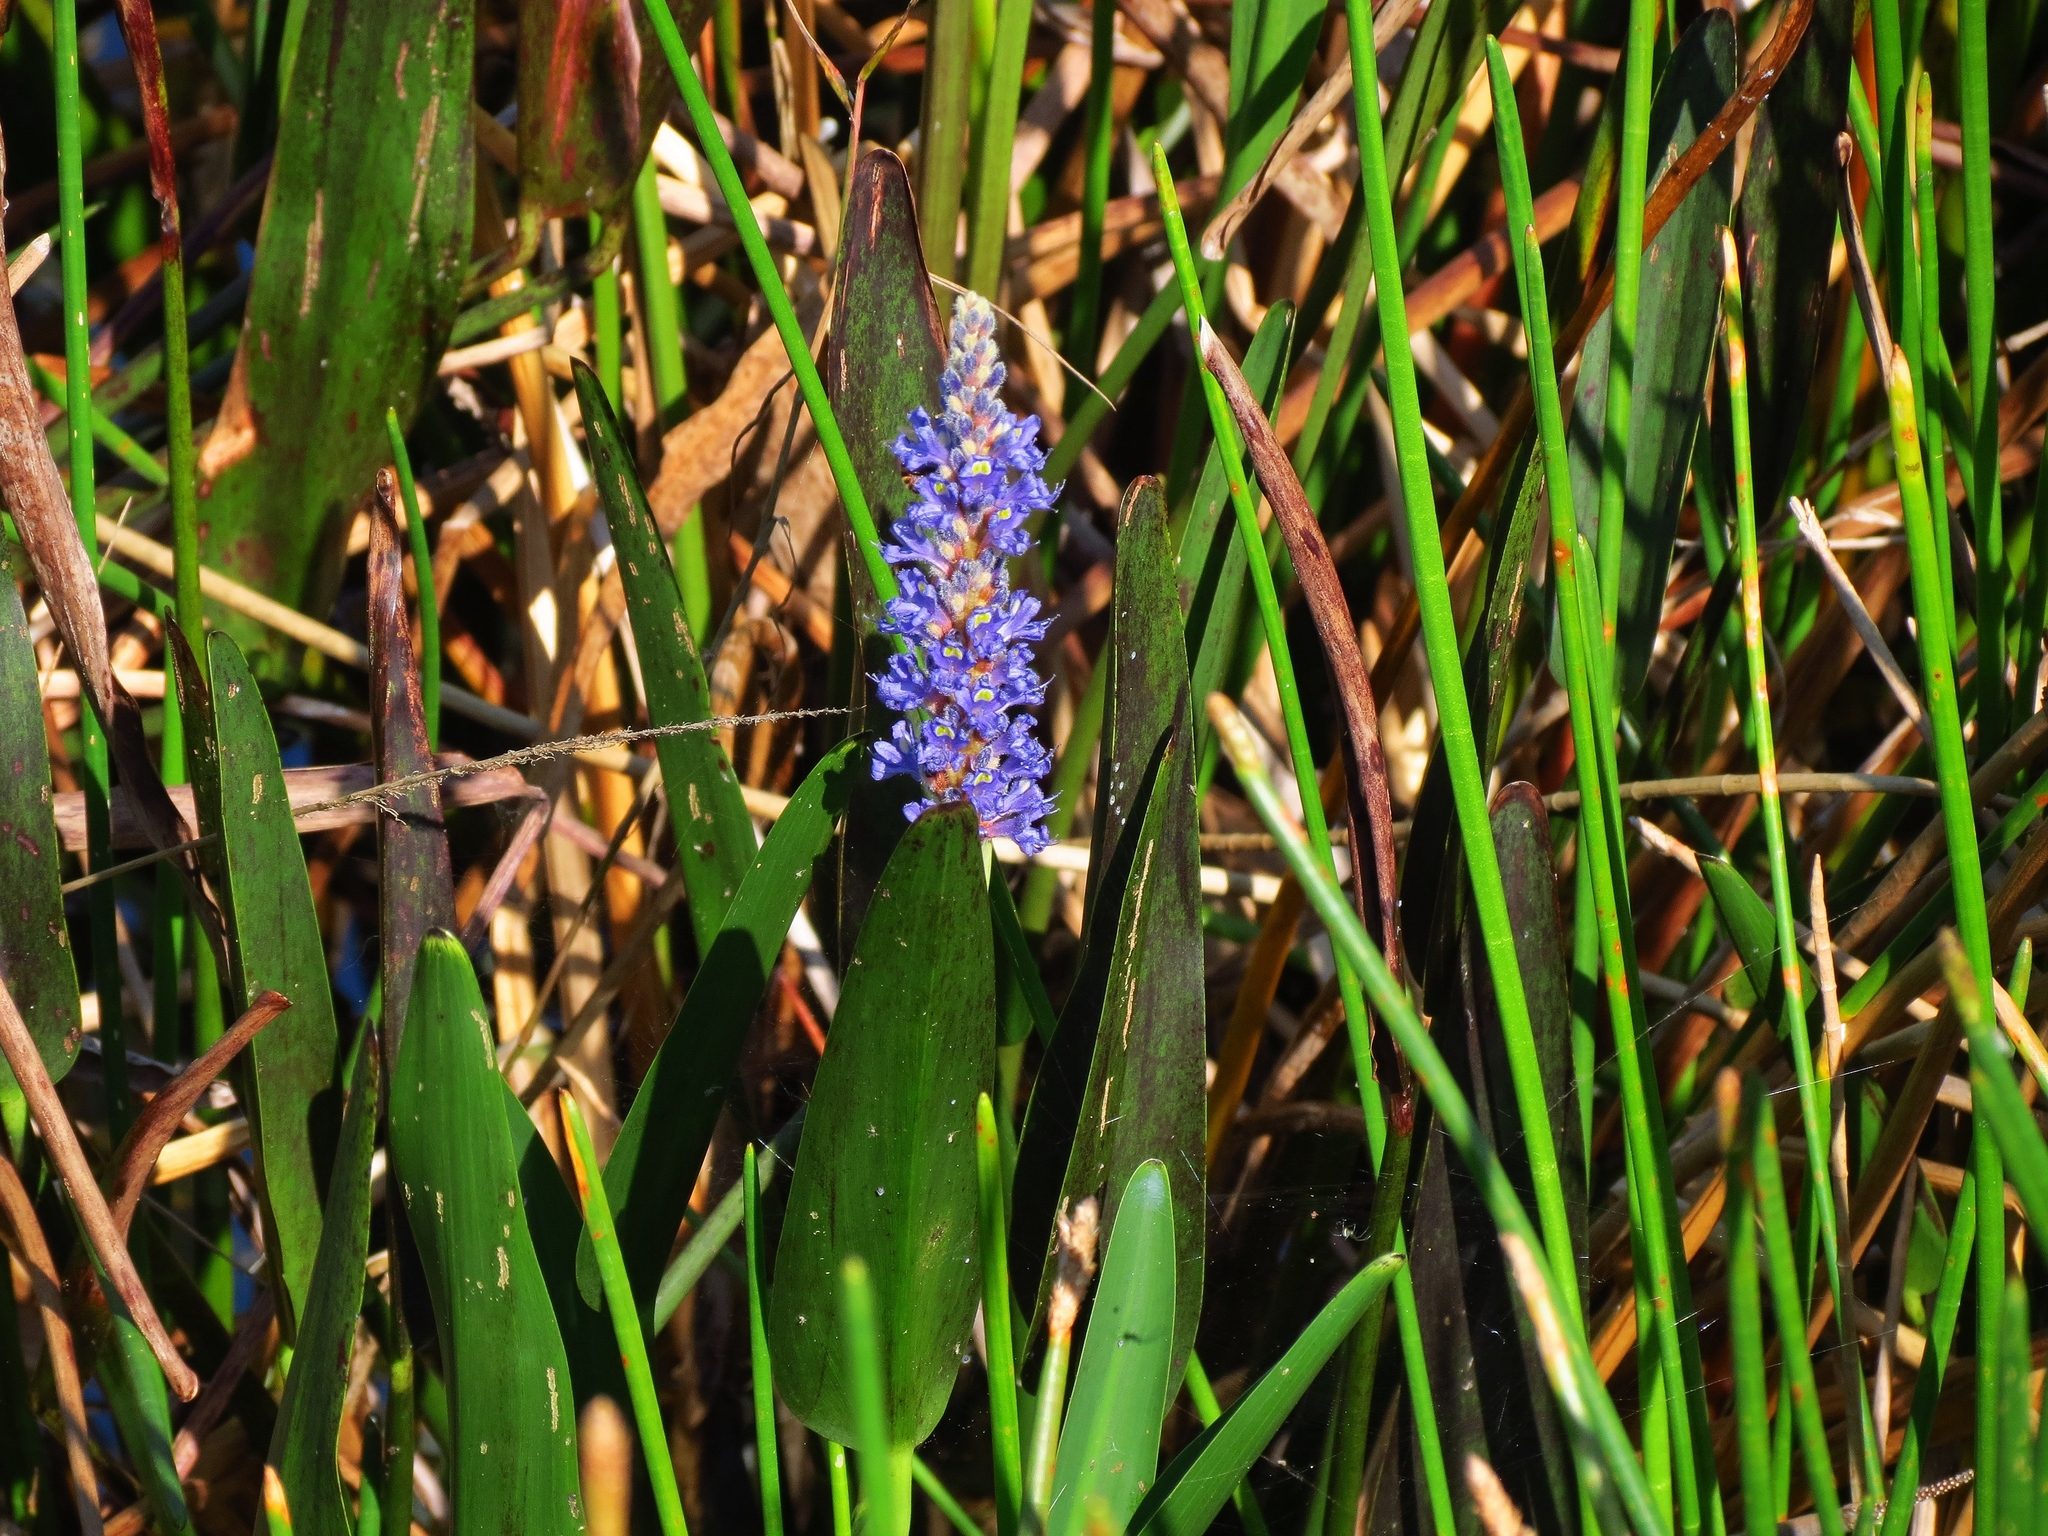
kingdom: Plantae
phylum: Tracheophyta
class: Liliopsida
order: Commelinales
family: Pontederiaceae
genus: Pontederia
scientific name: Pontederia cordata
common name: Pickerelweed
